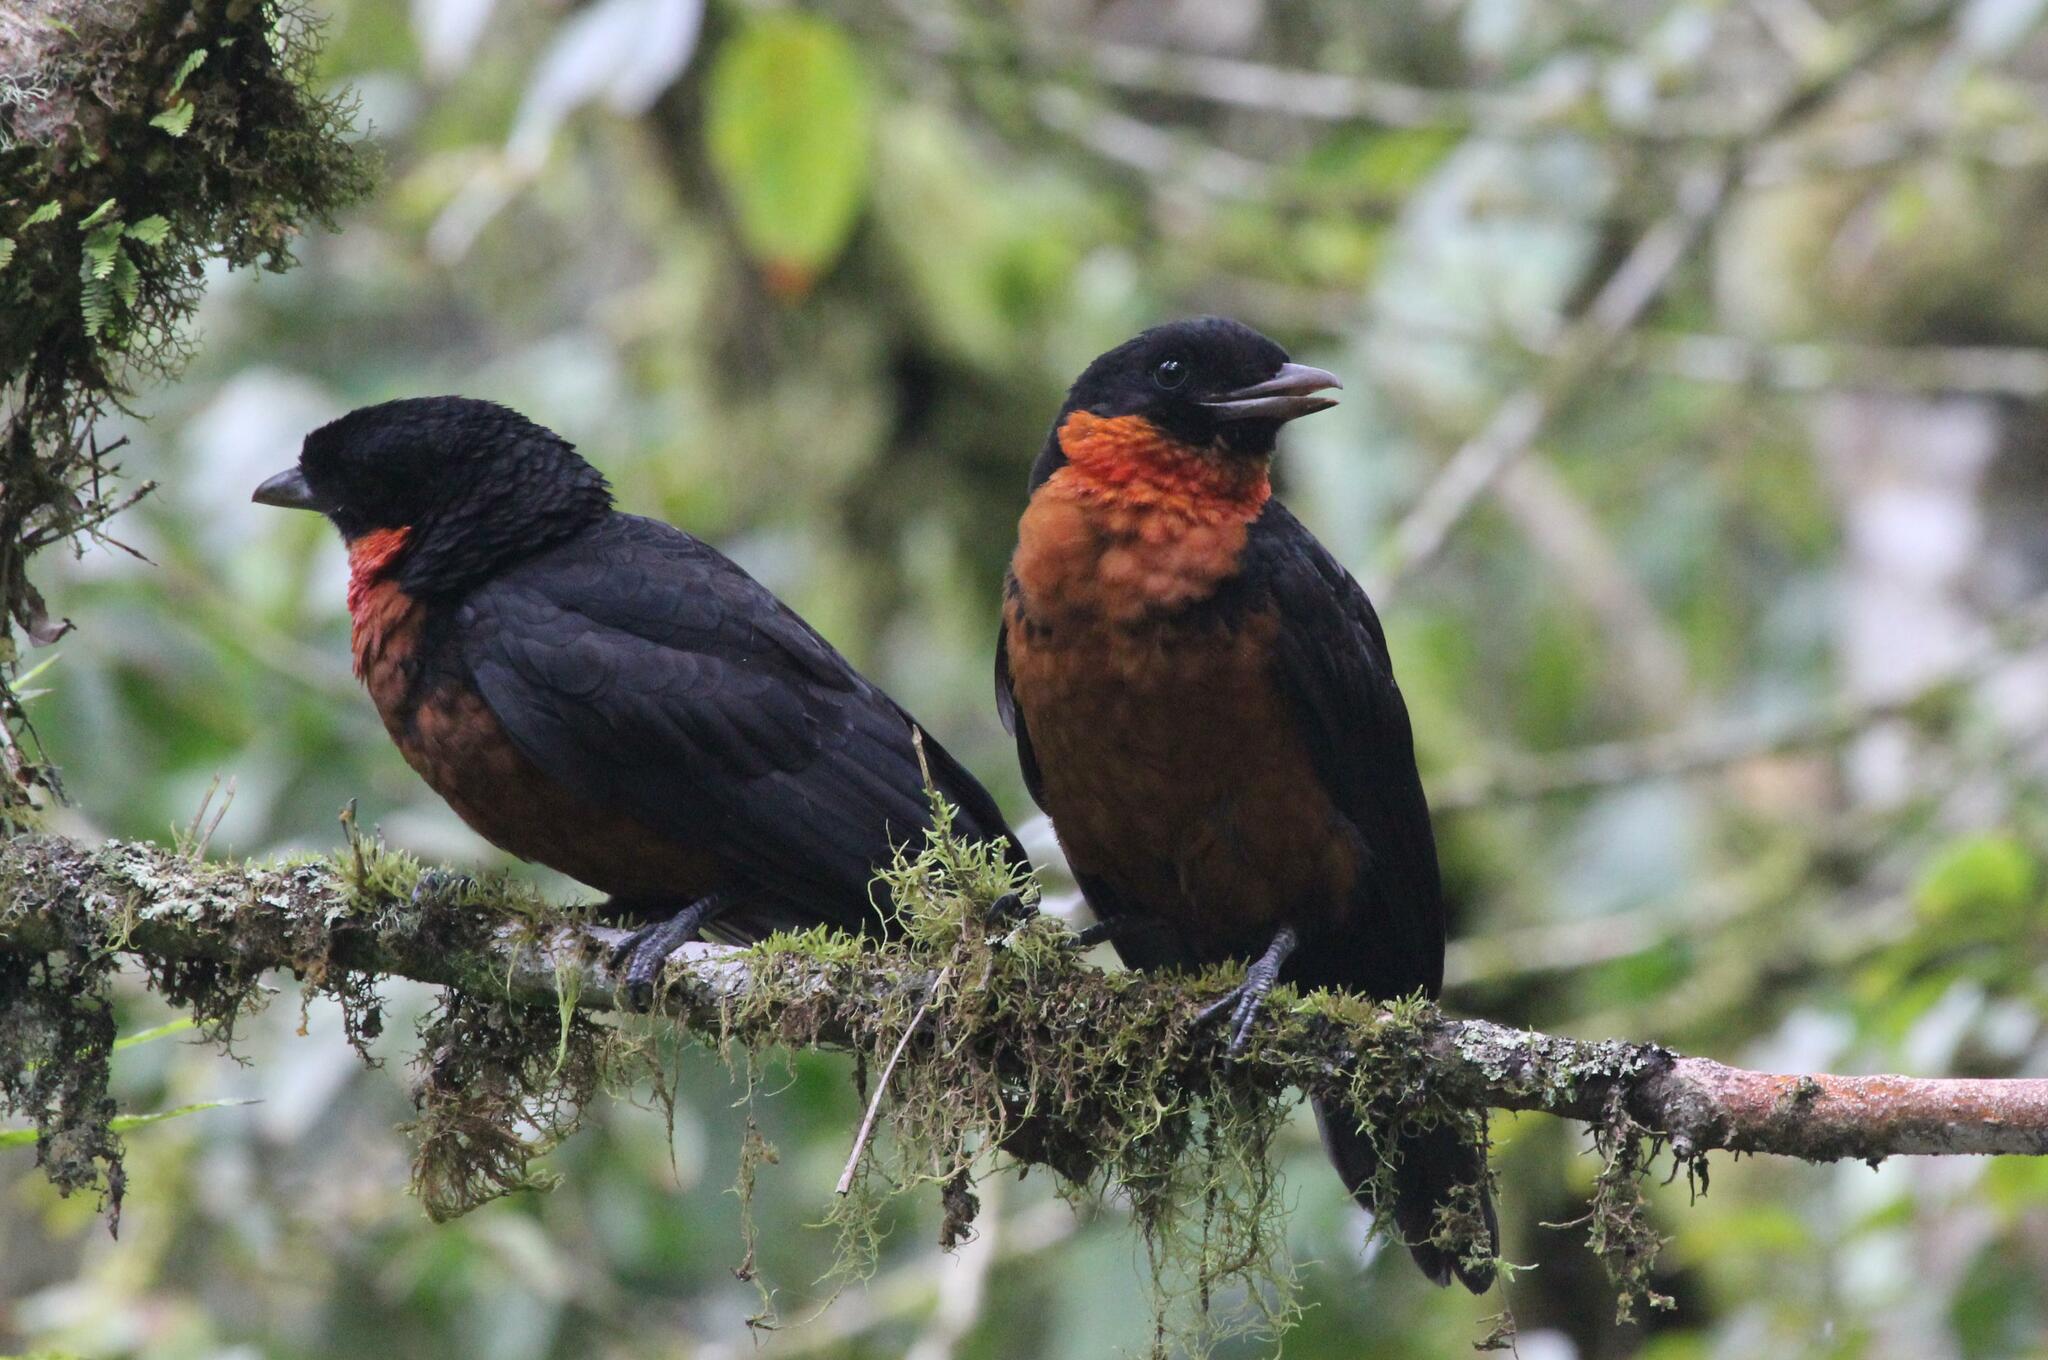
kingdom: Animalia
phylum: Chordata
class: Aves
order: Passeriformes
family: Cotingidae
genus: Pyroderus
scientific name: Pyroderus scutatus
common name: Red-ruffed fruitcrow
